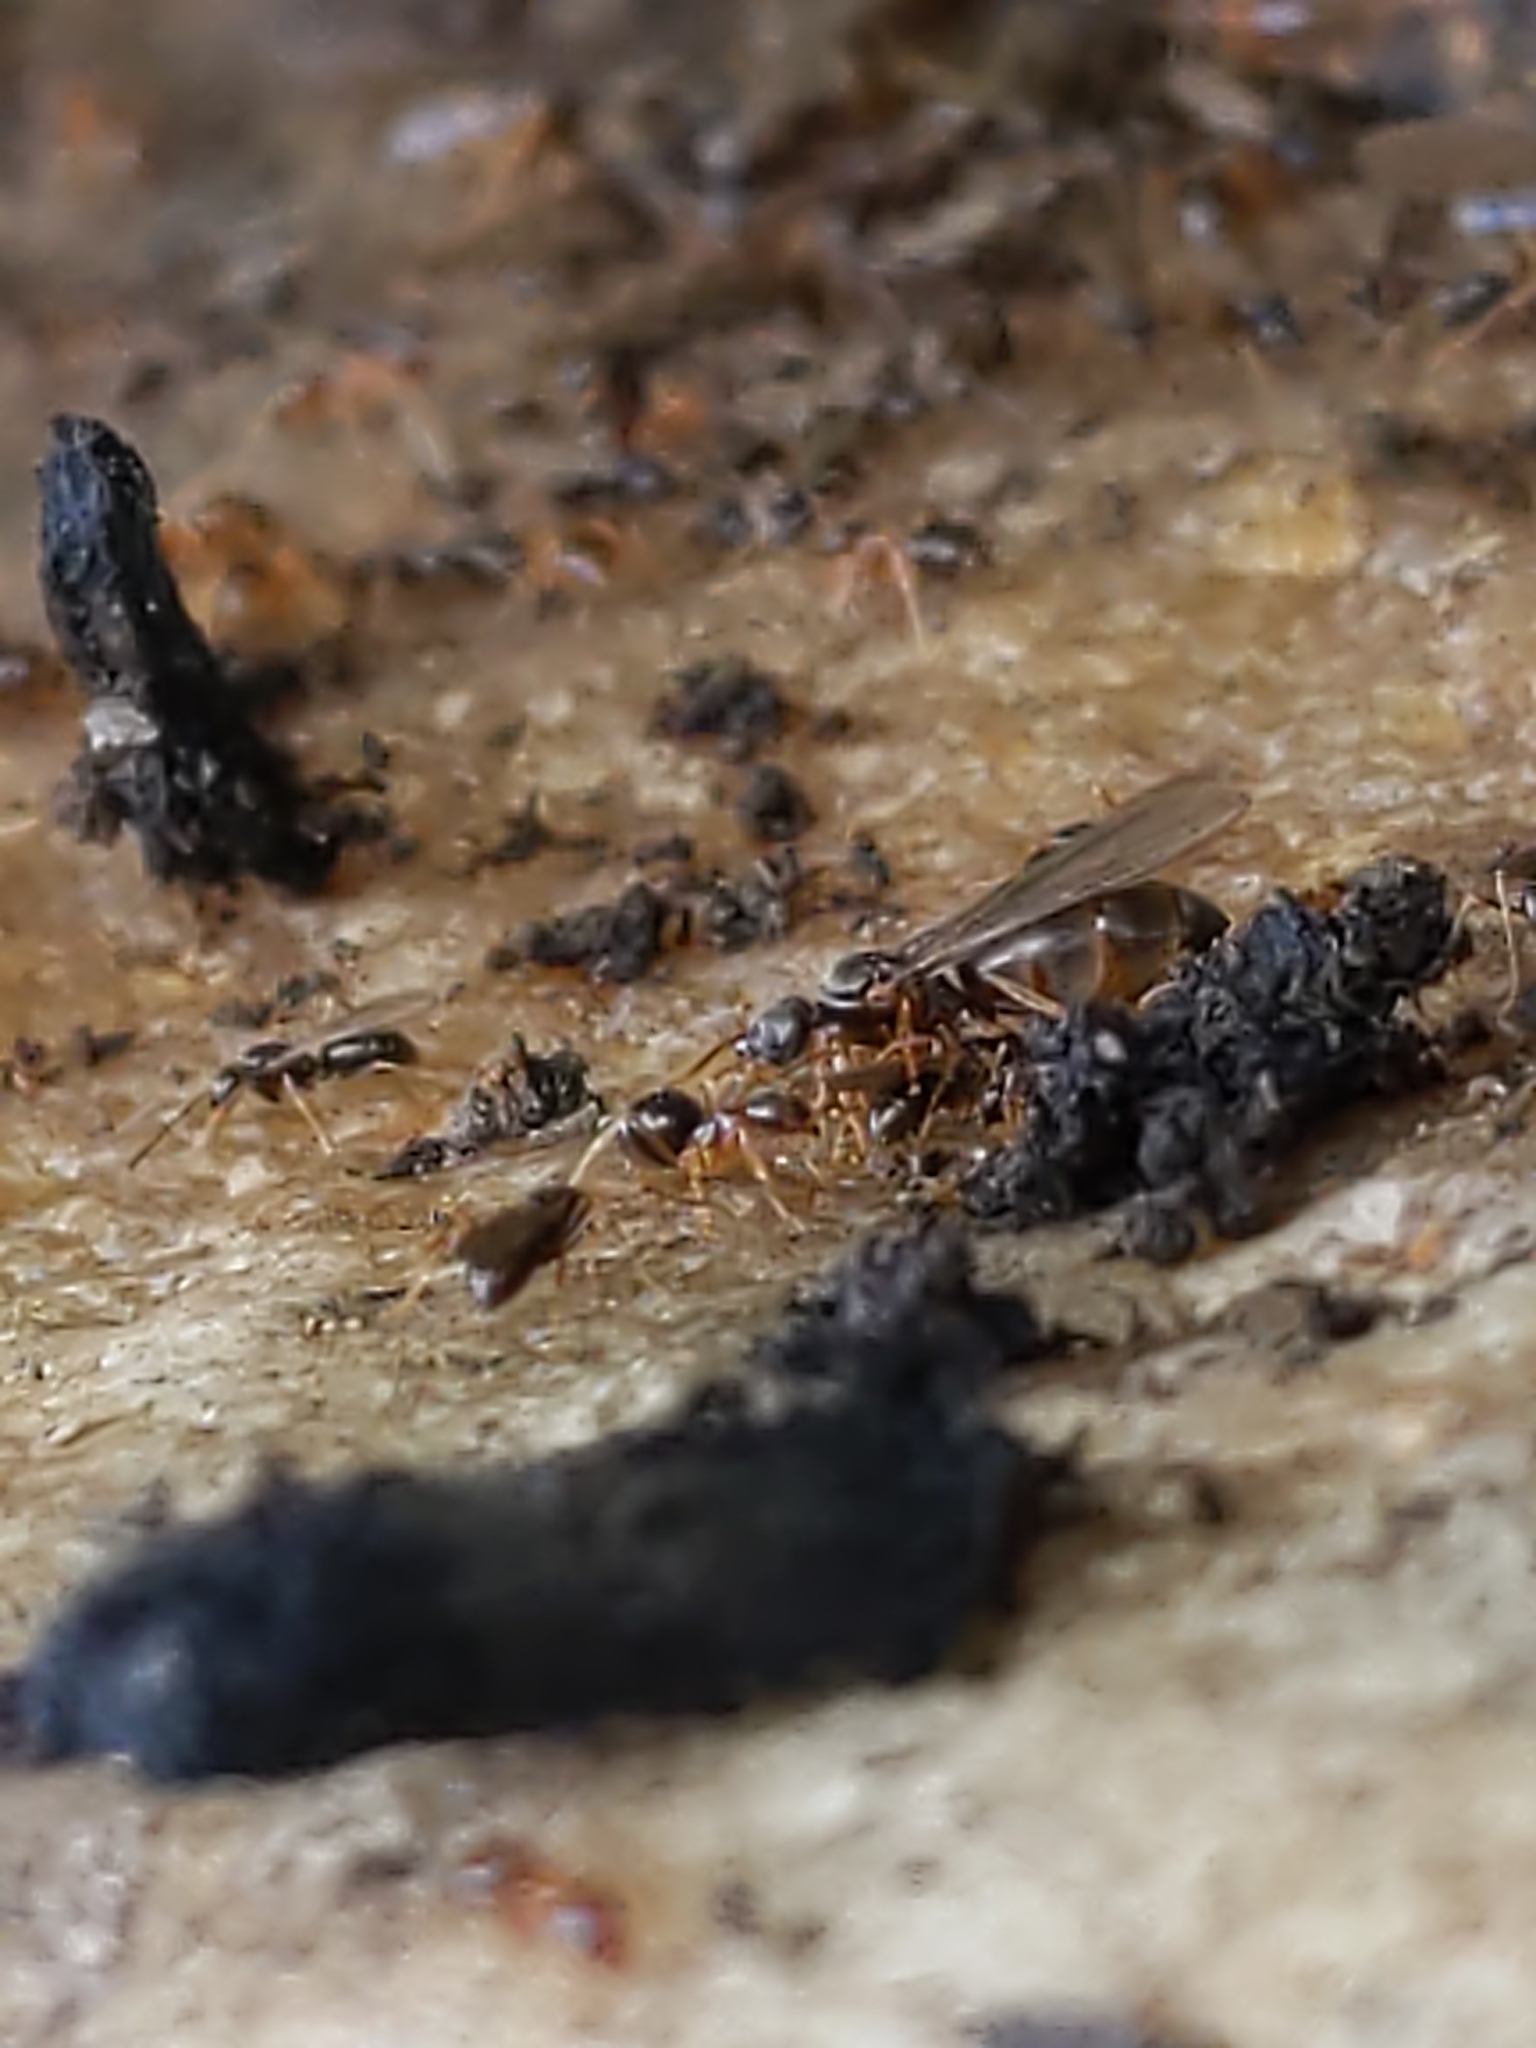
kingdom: Animalia
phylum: Arthropoda
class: Insecta
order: Hymenoptera
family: Formicidae
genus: Paratrechina
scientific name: Paratrechina flavipes
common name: Eastern asian formicine ant
